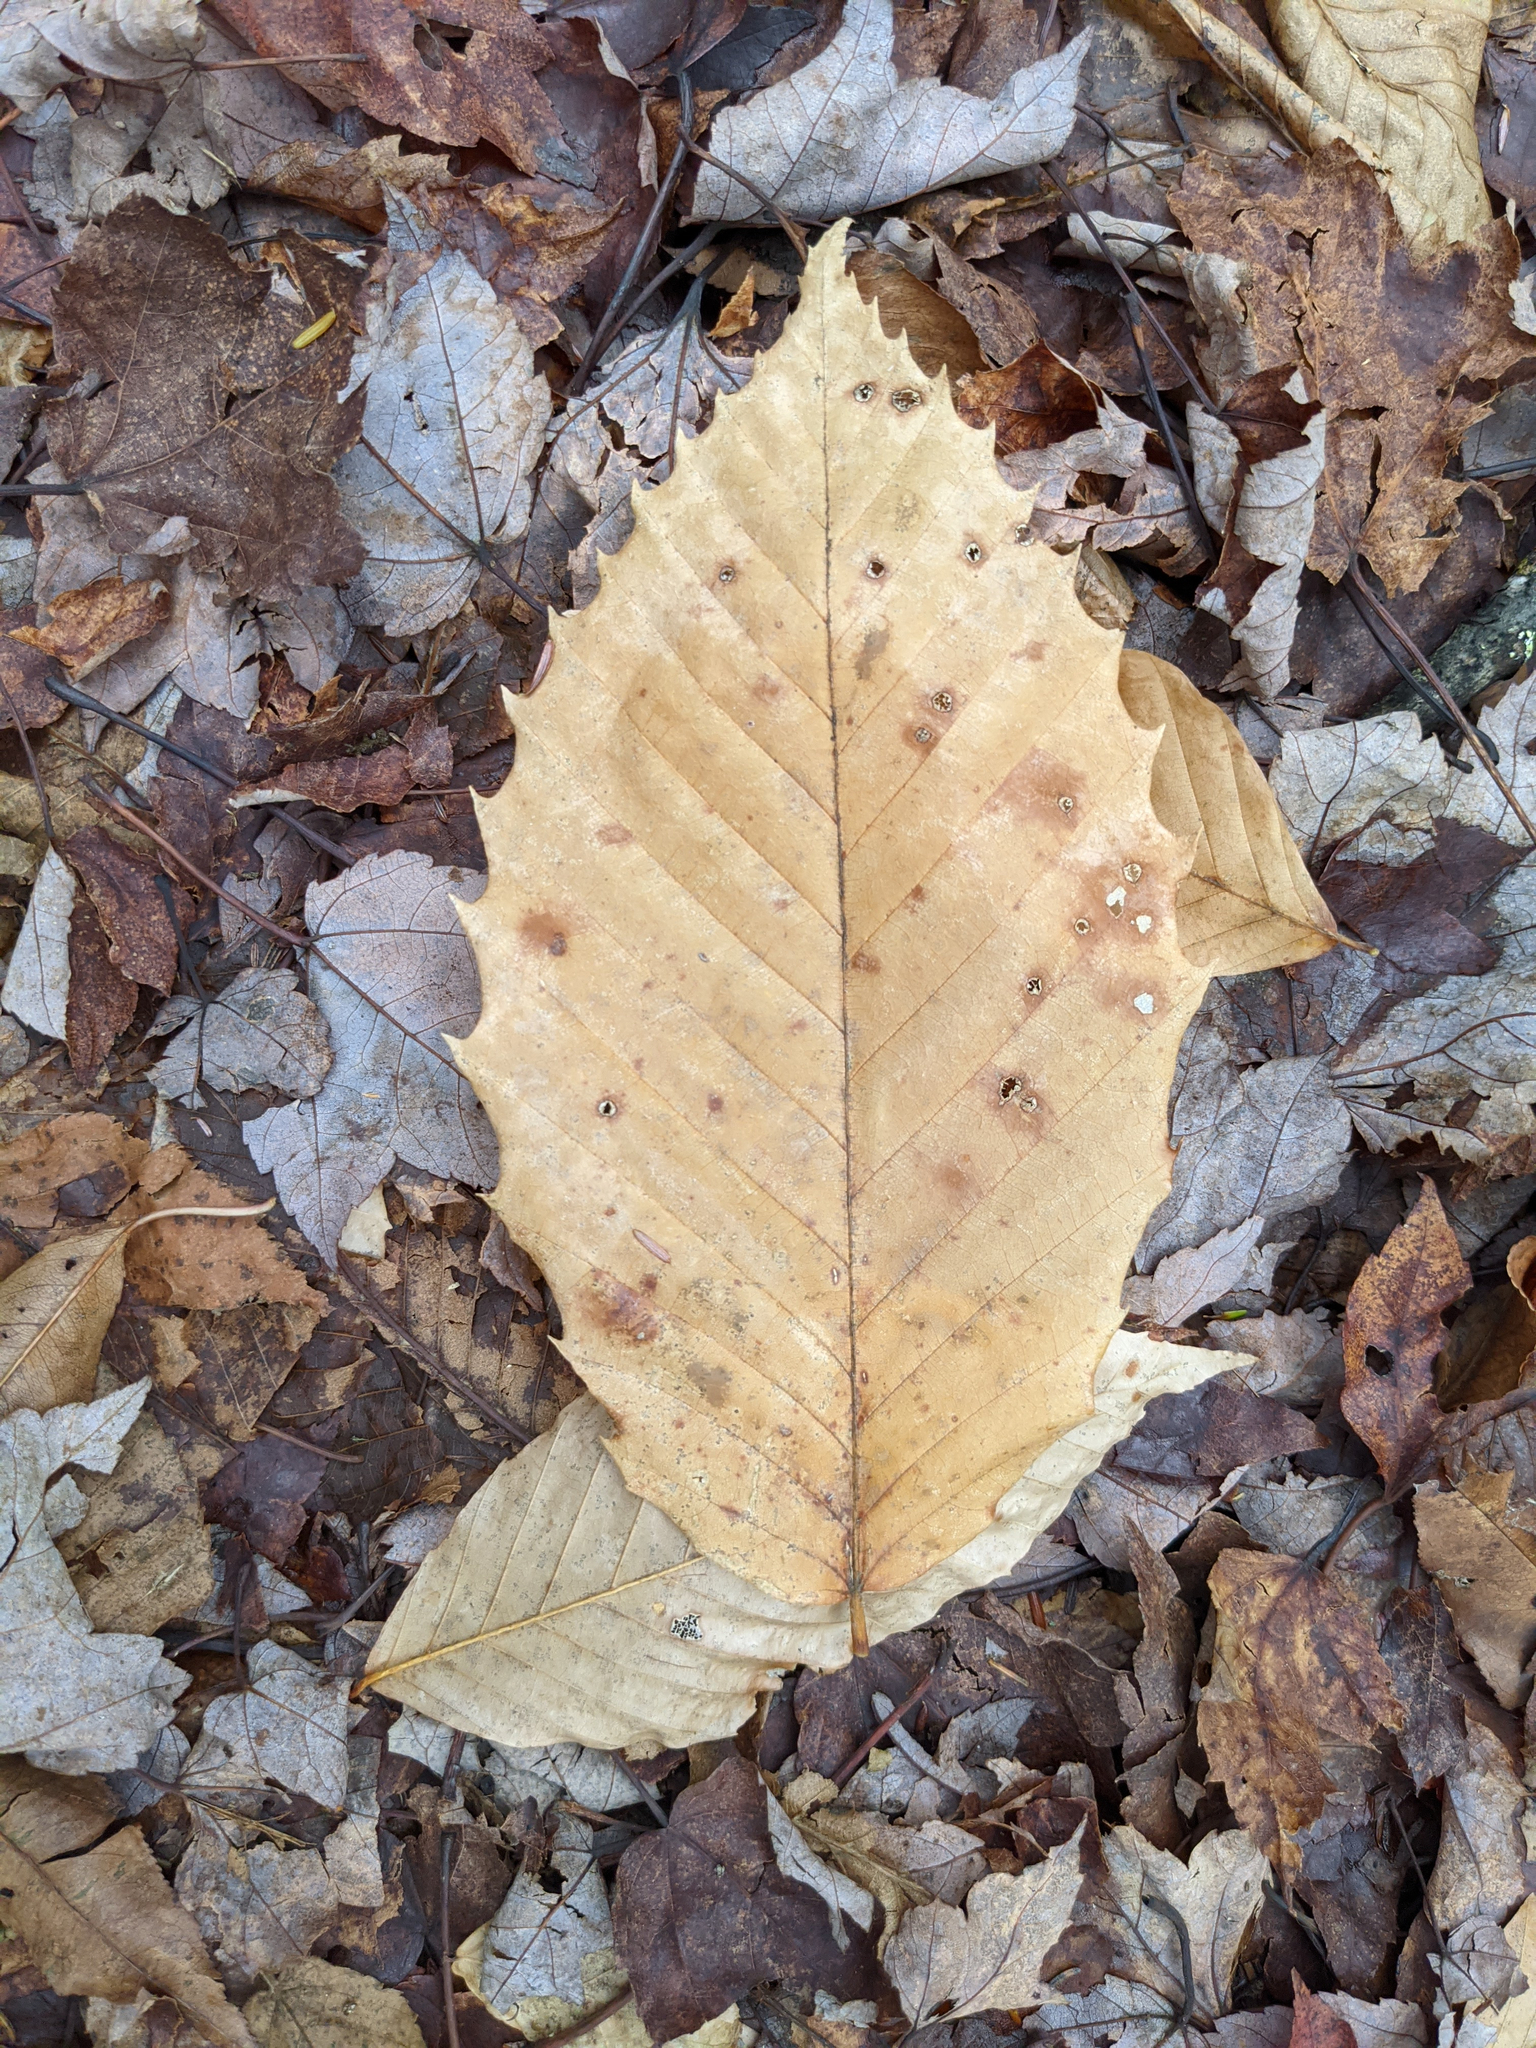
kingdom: Plantae
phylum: Tracheophyta
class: Magnoliopsida
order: Fagales
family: Fagaceae
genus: Fagus
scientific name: Fagus grandifolia
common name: American beech
